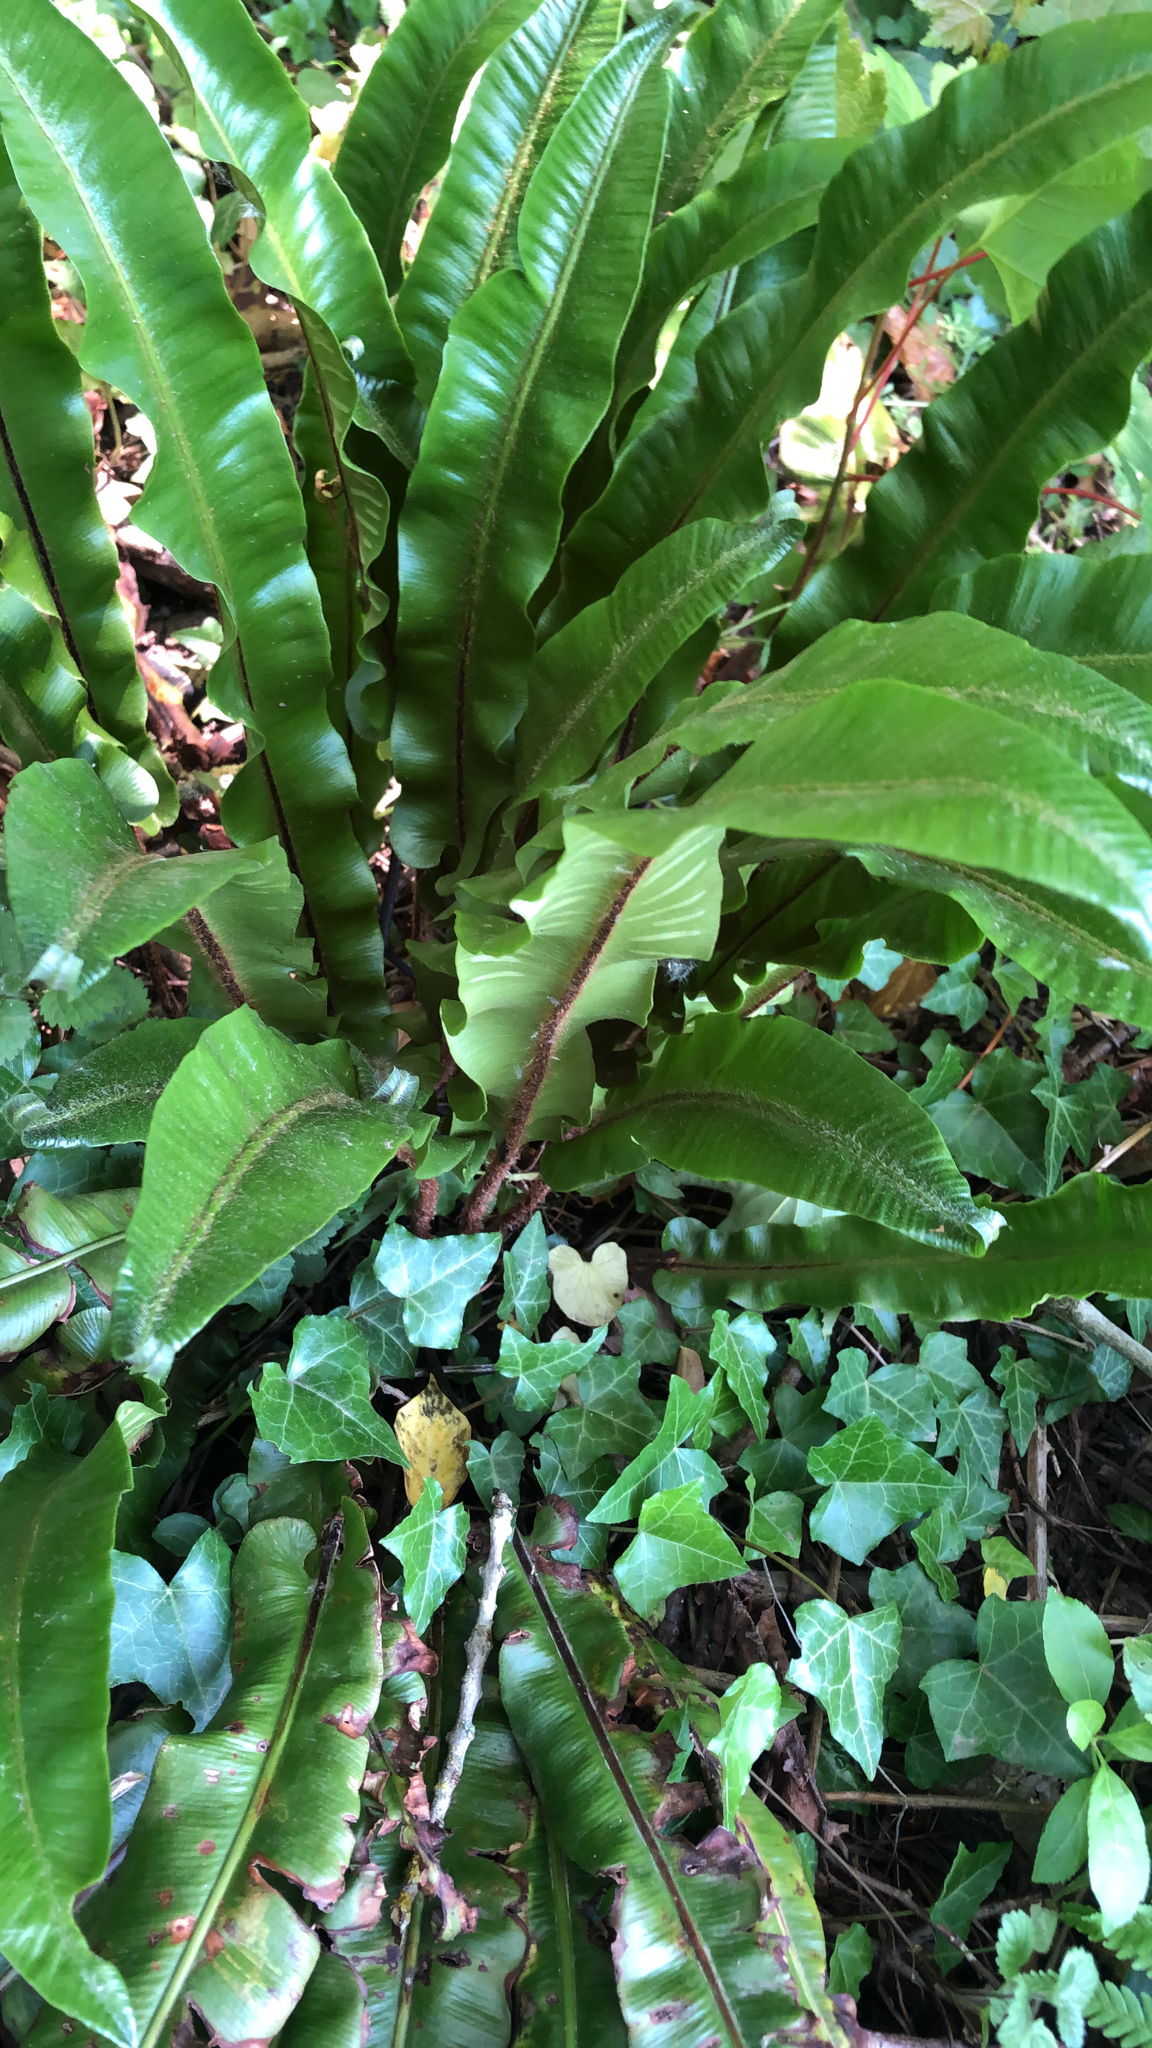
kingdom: Plantae
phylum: Tracheophyta
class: Polypodiopsida
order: Polypodiales
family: Aspleniaceae
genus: Asplenium
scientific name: Asplenium scolopendrium
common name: Hart's-tongue fern
